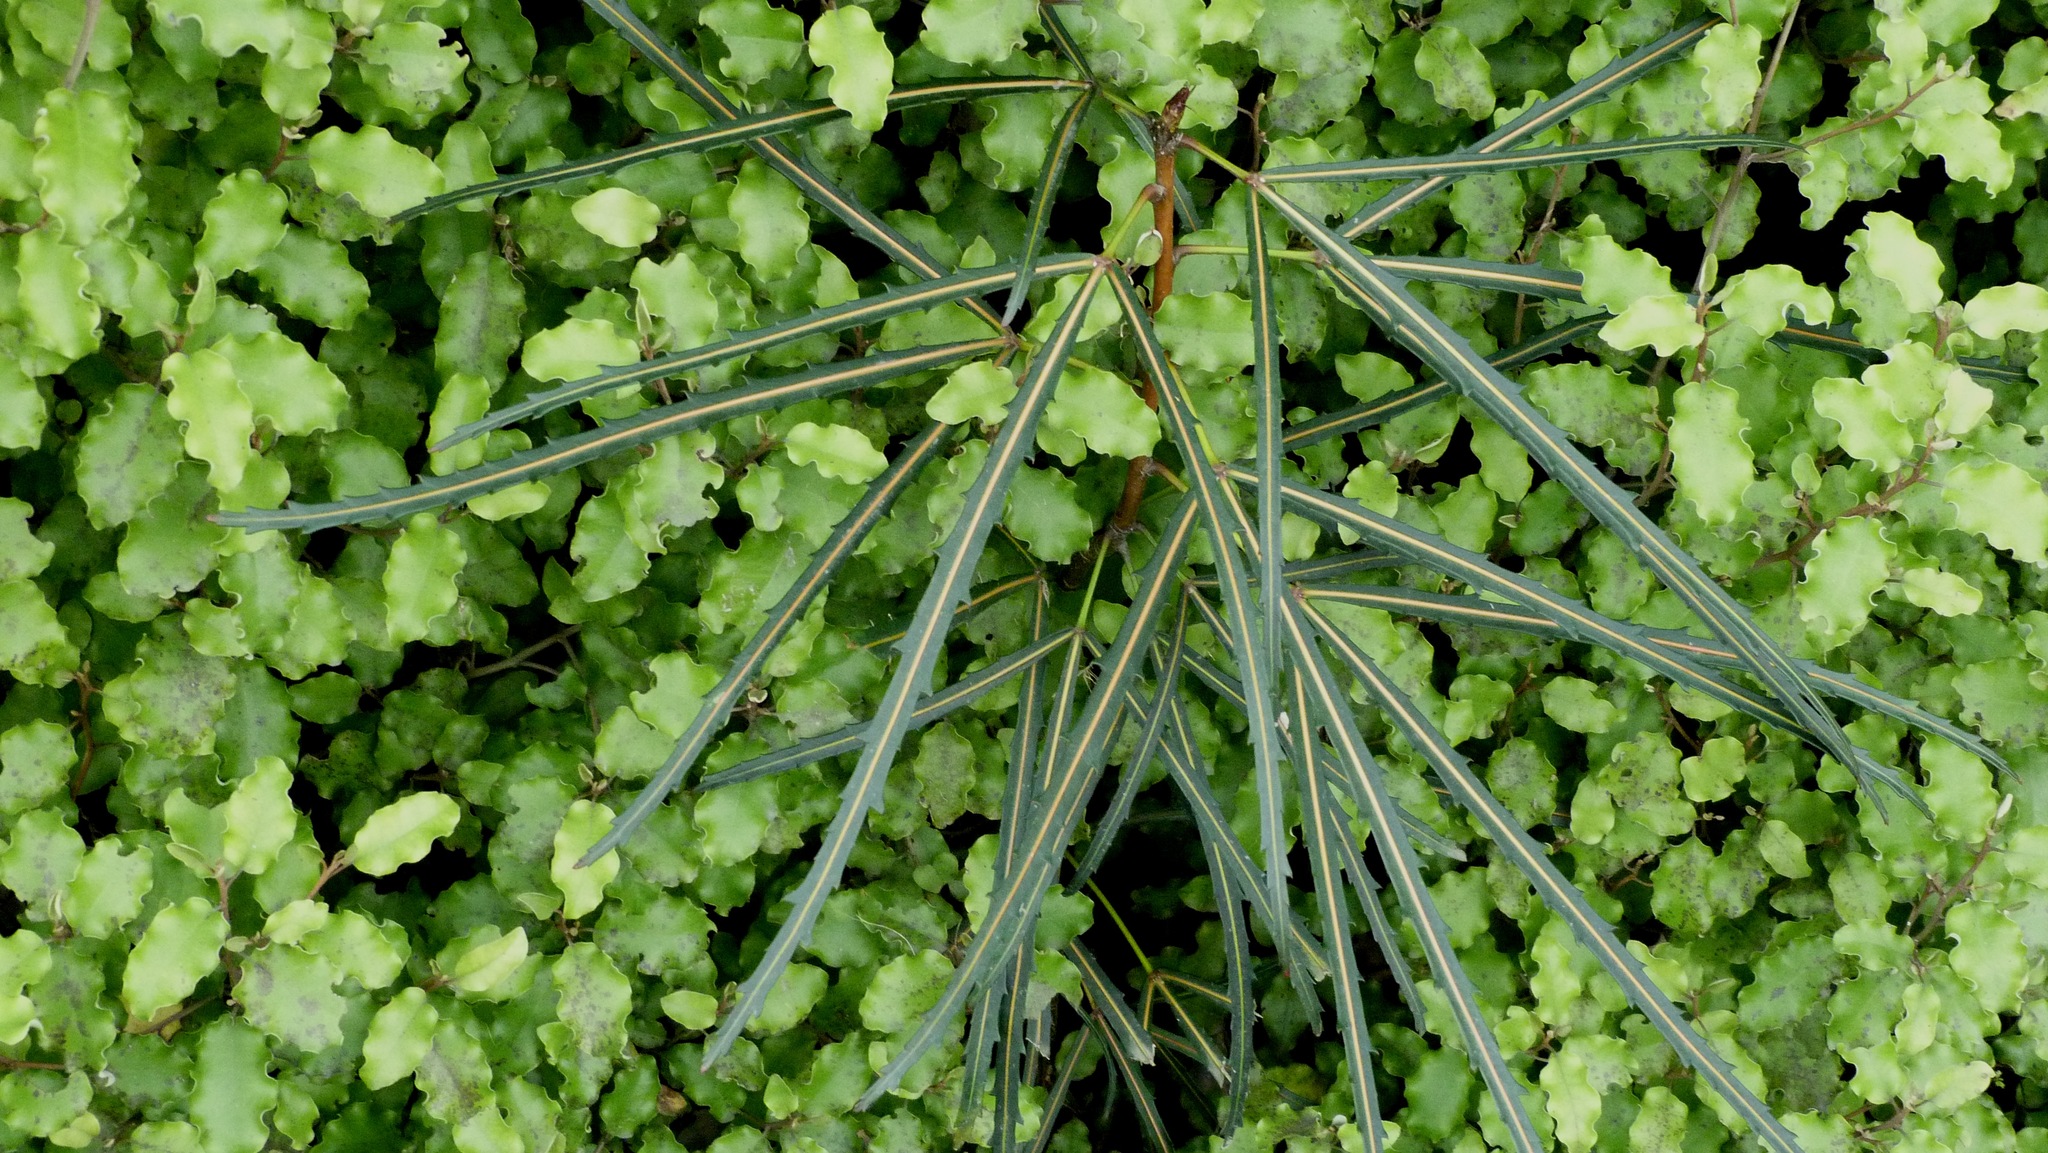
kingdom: Plantae
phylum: Tracheophyta
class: Magnoliopsida
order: Apiales
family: Araliaceae
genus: Pseudopanax
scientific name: Pseudopanax
